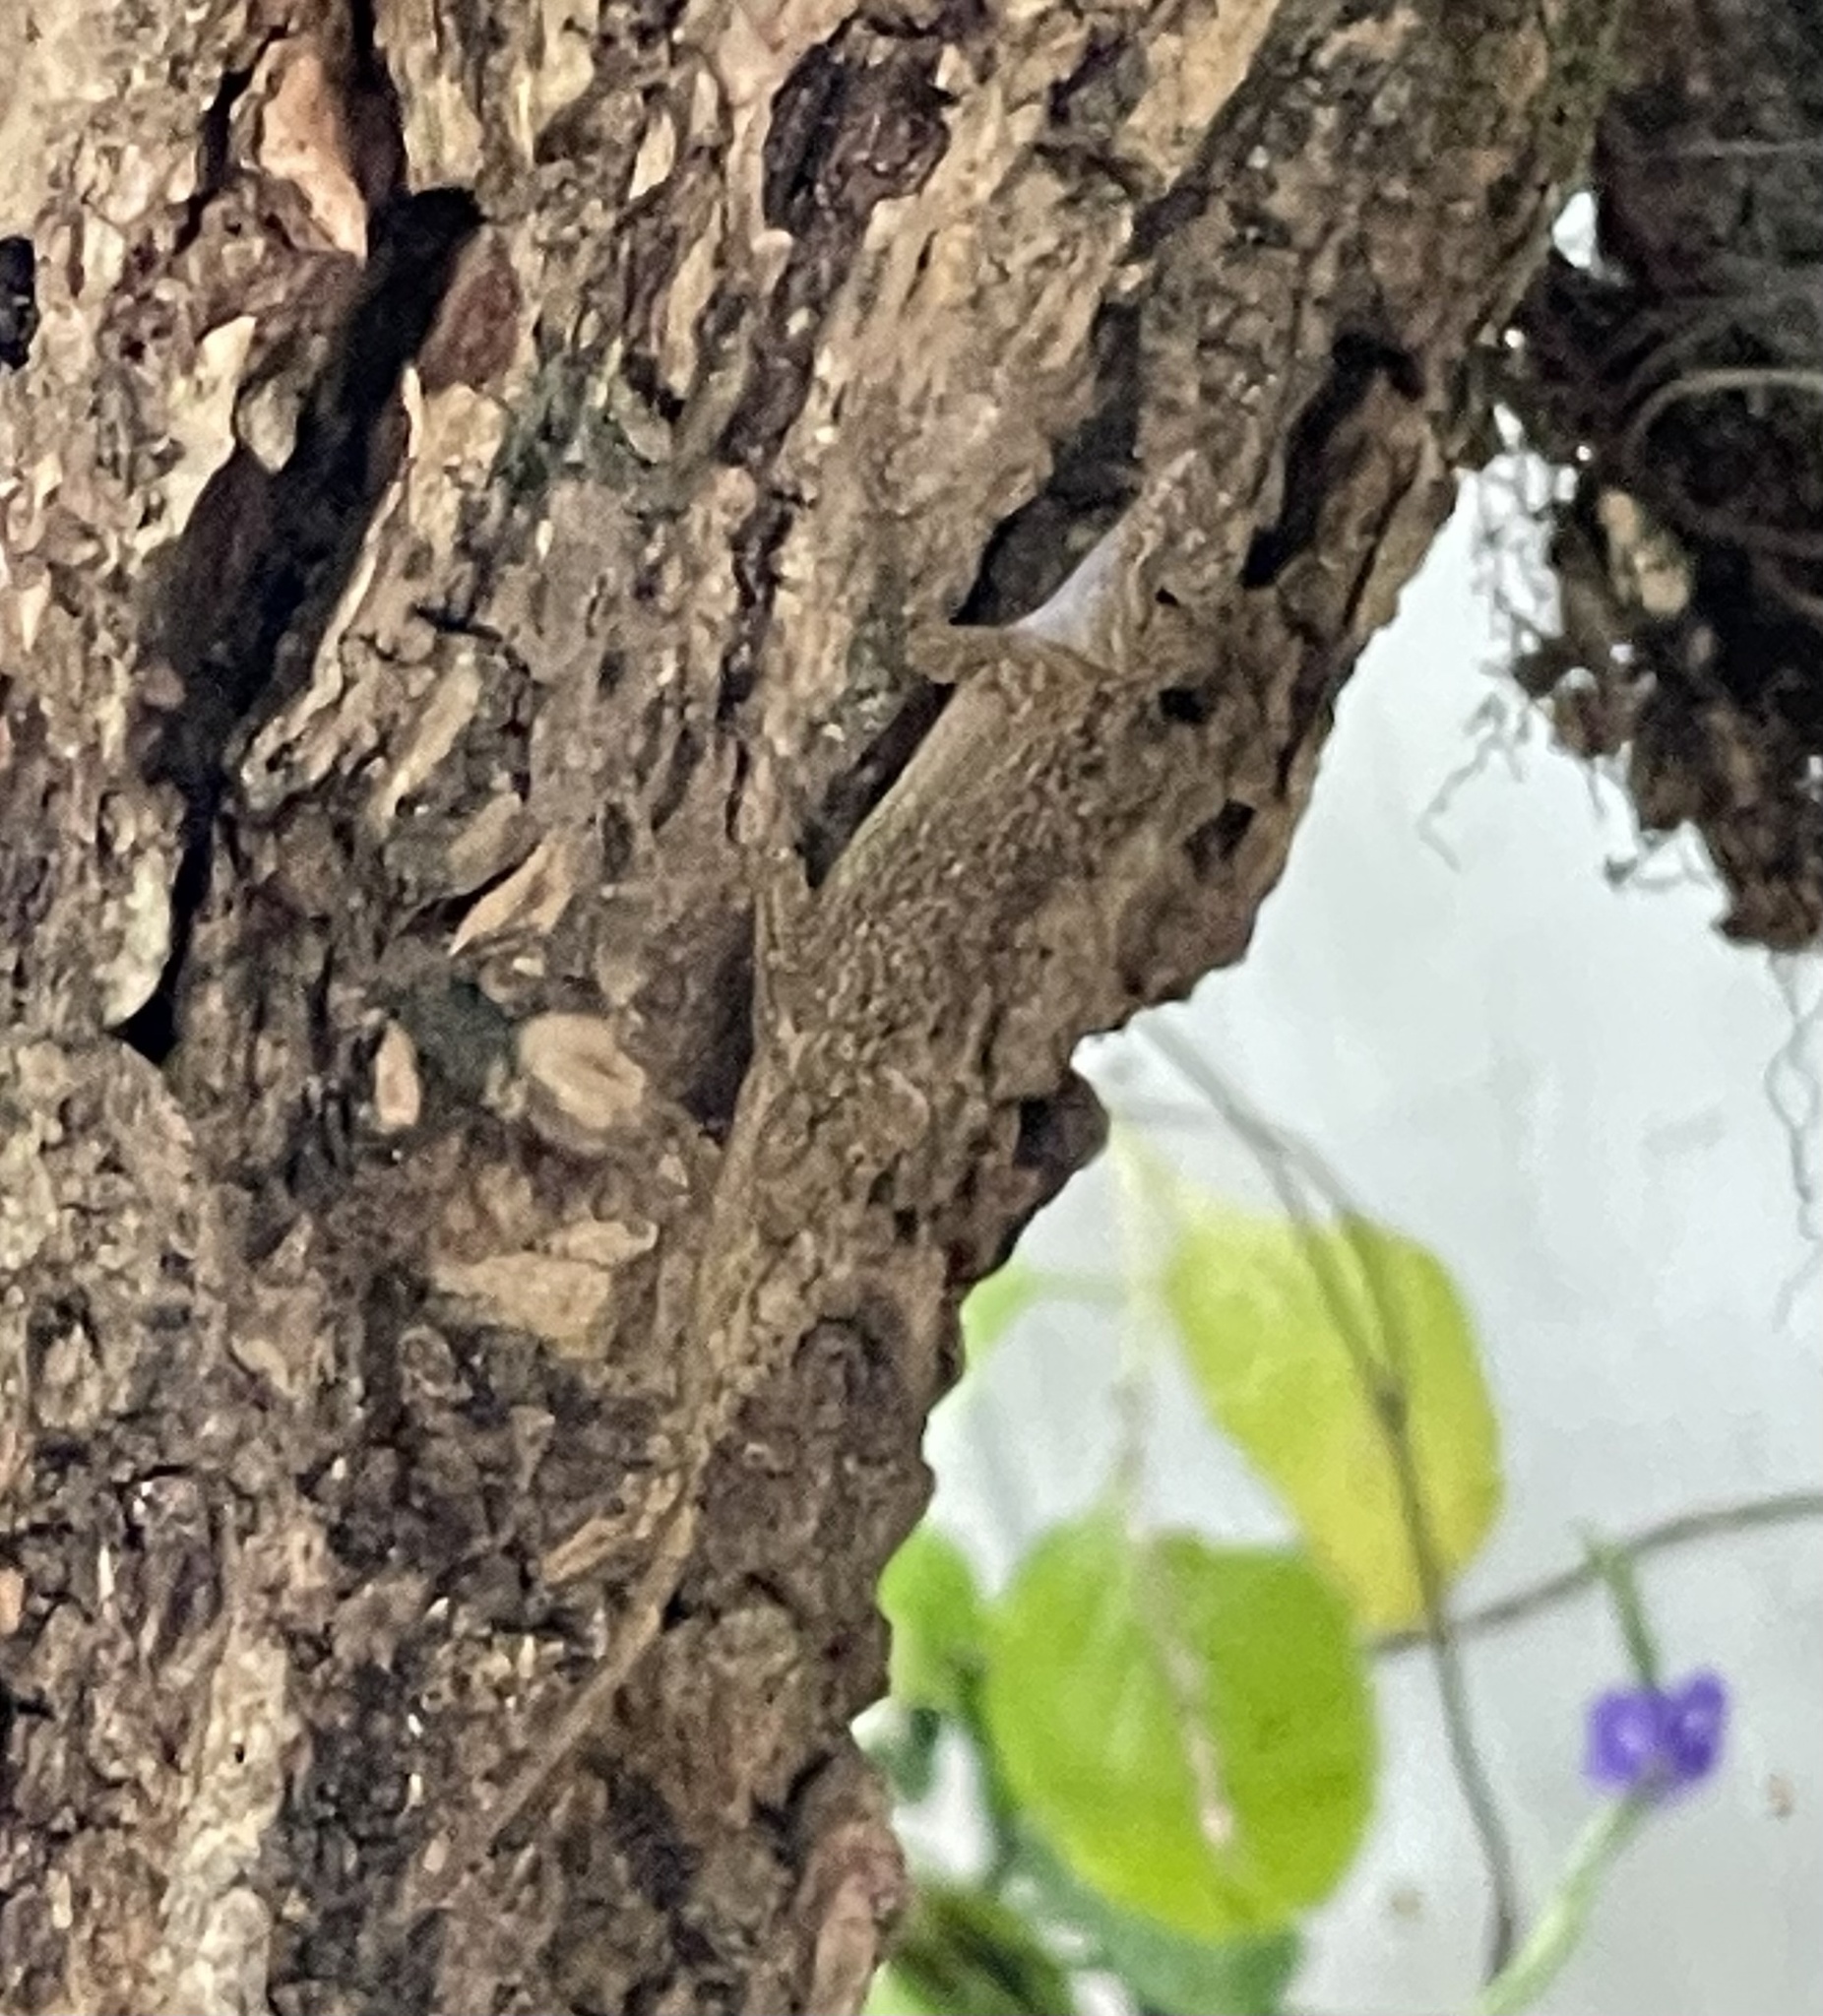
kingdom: Animalia
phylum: Chordata
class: Squamata
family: Dactyloidae
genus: Anolis
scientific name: Anolis distichus
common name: Bark anole
